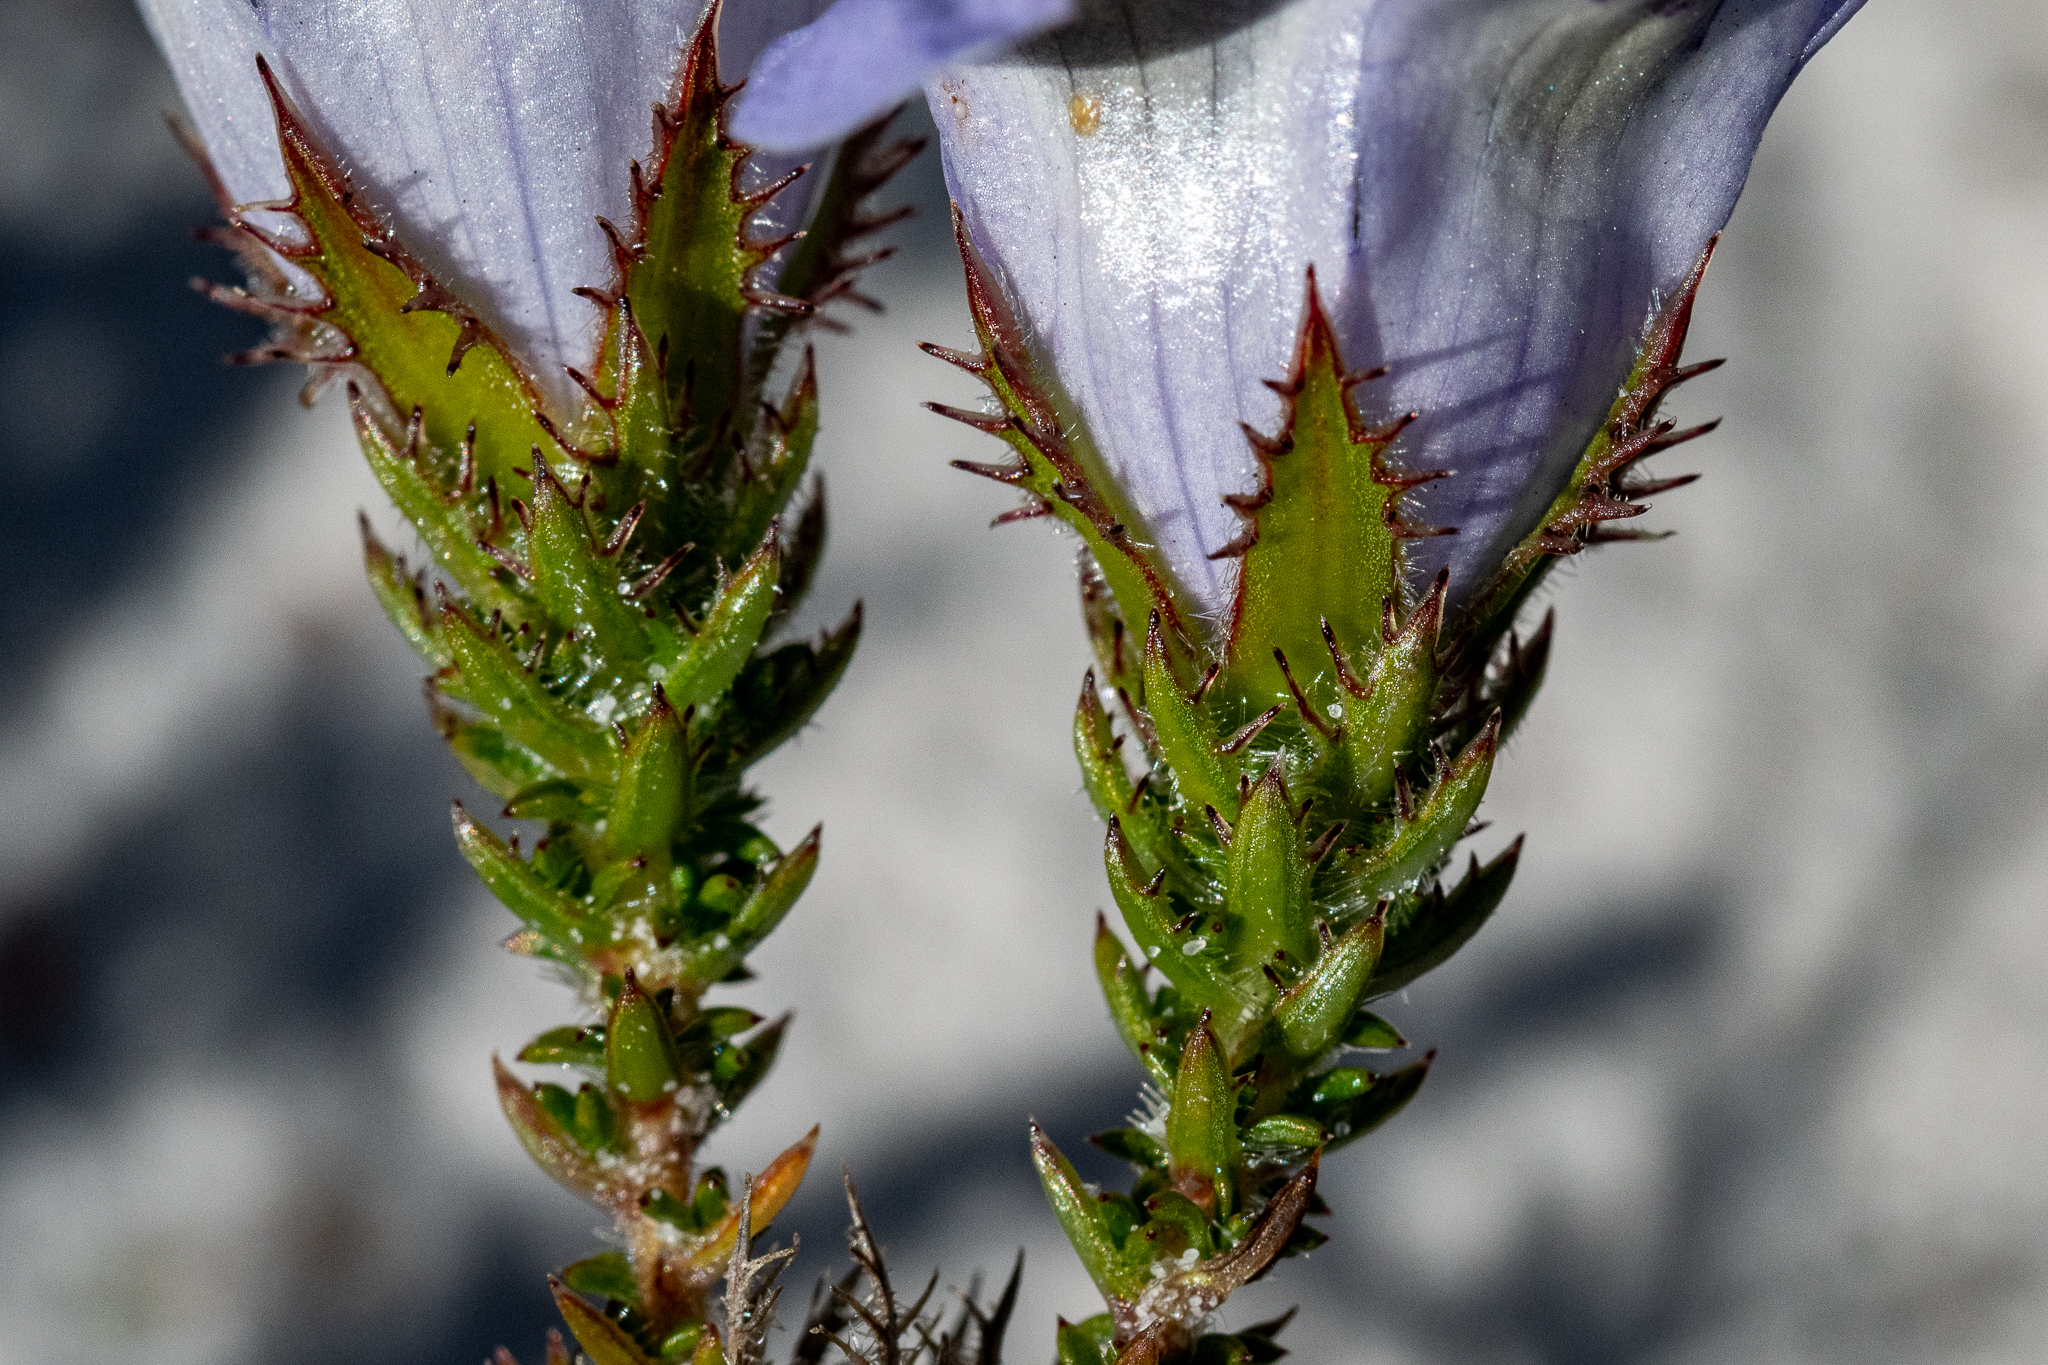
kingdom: Plantae
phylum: Tracheophyta
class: Magnoliopsida
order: Asterales
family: Campanulaceae
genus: Roella
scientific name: Roella incurva
